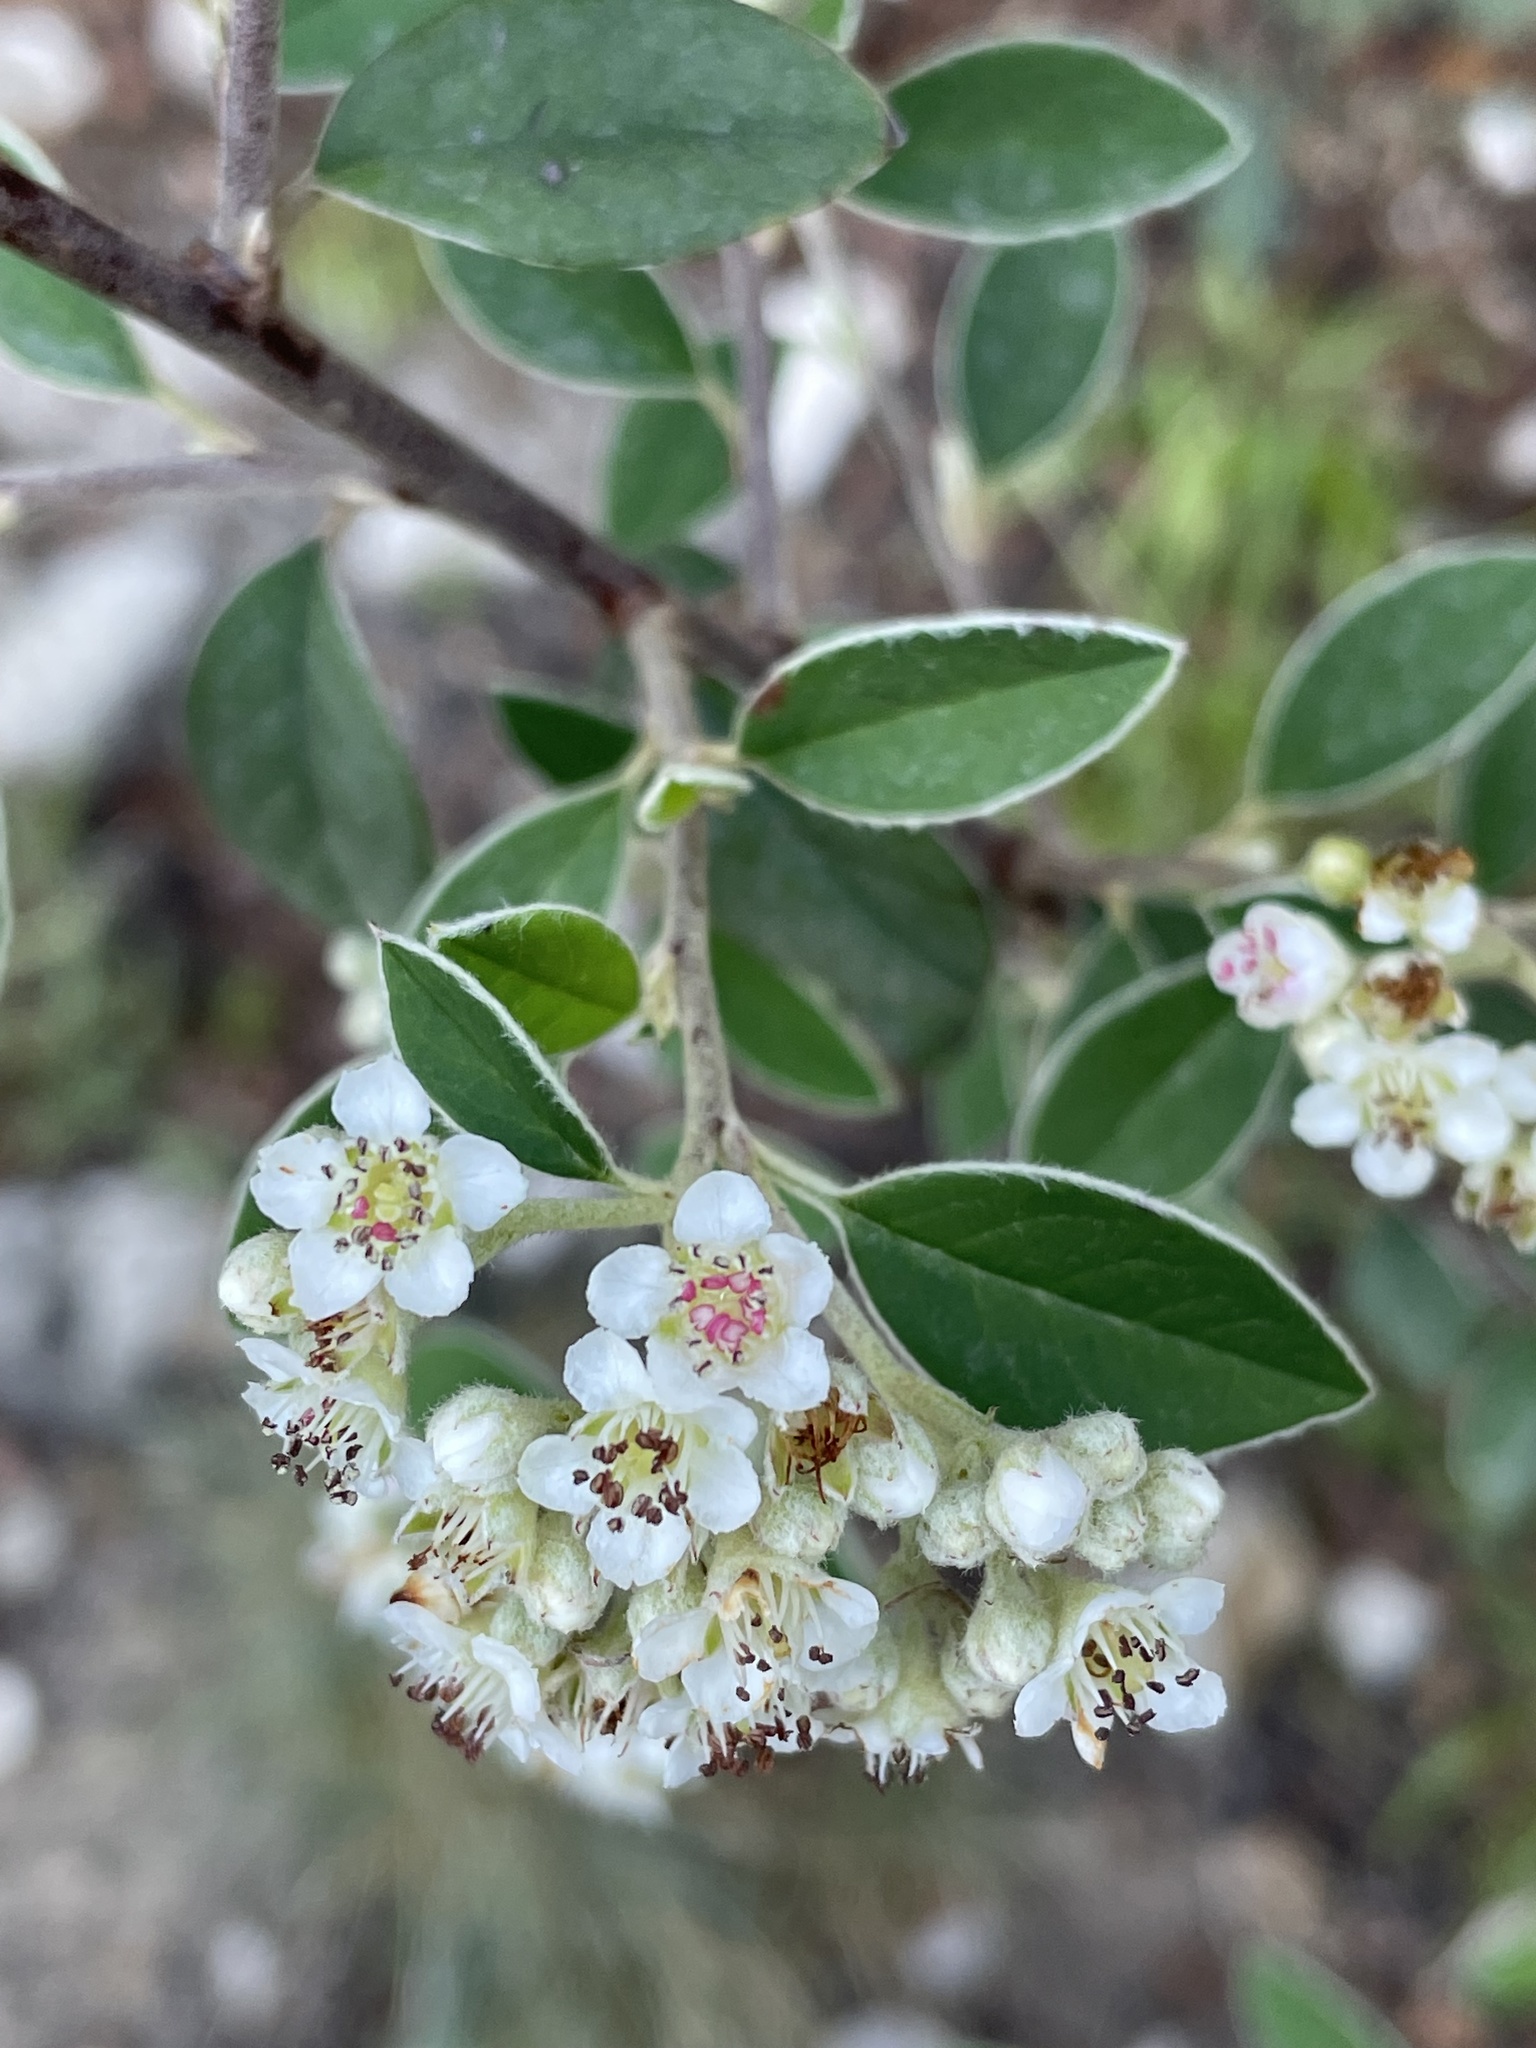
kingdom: Plantae
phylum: Tracheophyta
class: Magnoliopsida
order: Rosales
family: Rosaceae
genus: Cotoneaster
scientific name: Cotoneaster pannosus
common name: Silverleaf cotoneaster
